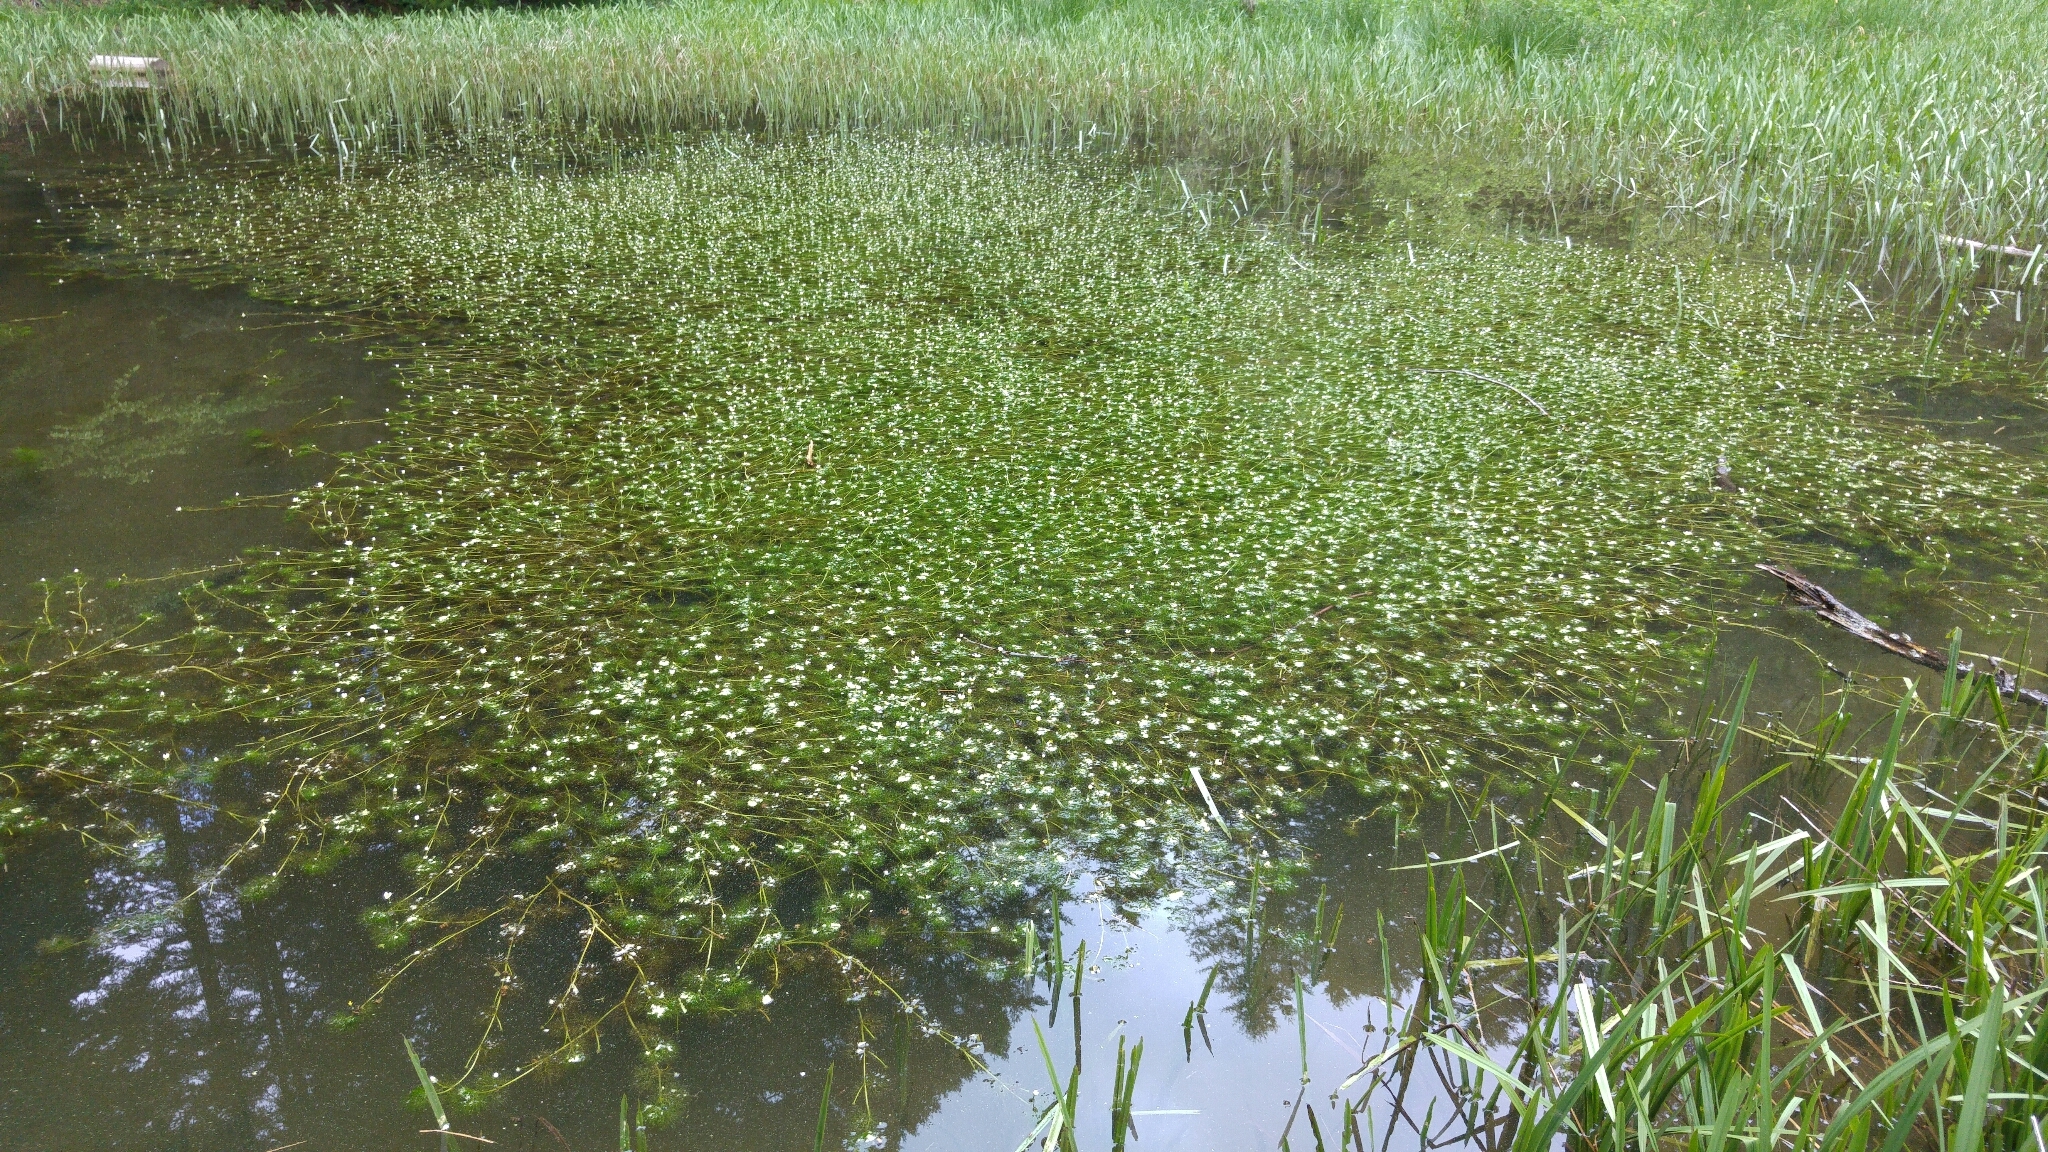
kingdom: Plantae
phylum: Tracheophyta
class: Magnoliopsida
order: Ranunculales
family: Ranunculaceae
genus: Ranunculus
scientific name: Ranunculus trichophyllus
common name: Thread-leaved water-crowfoot
